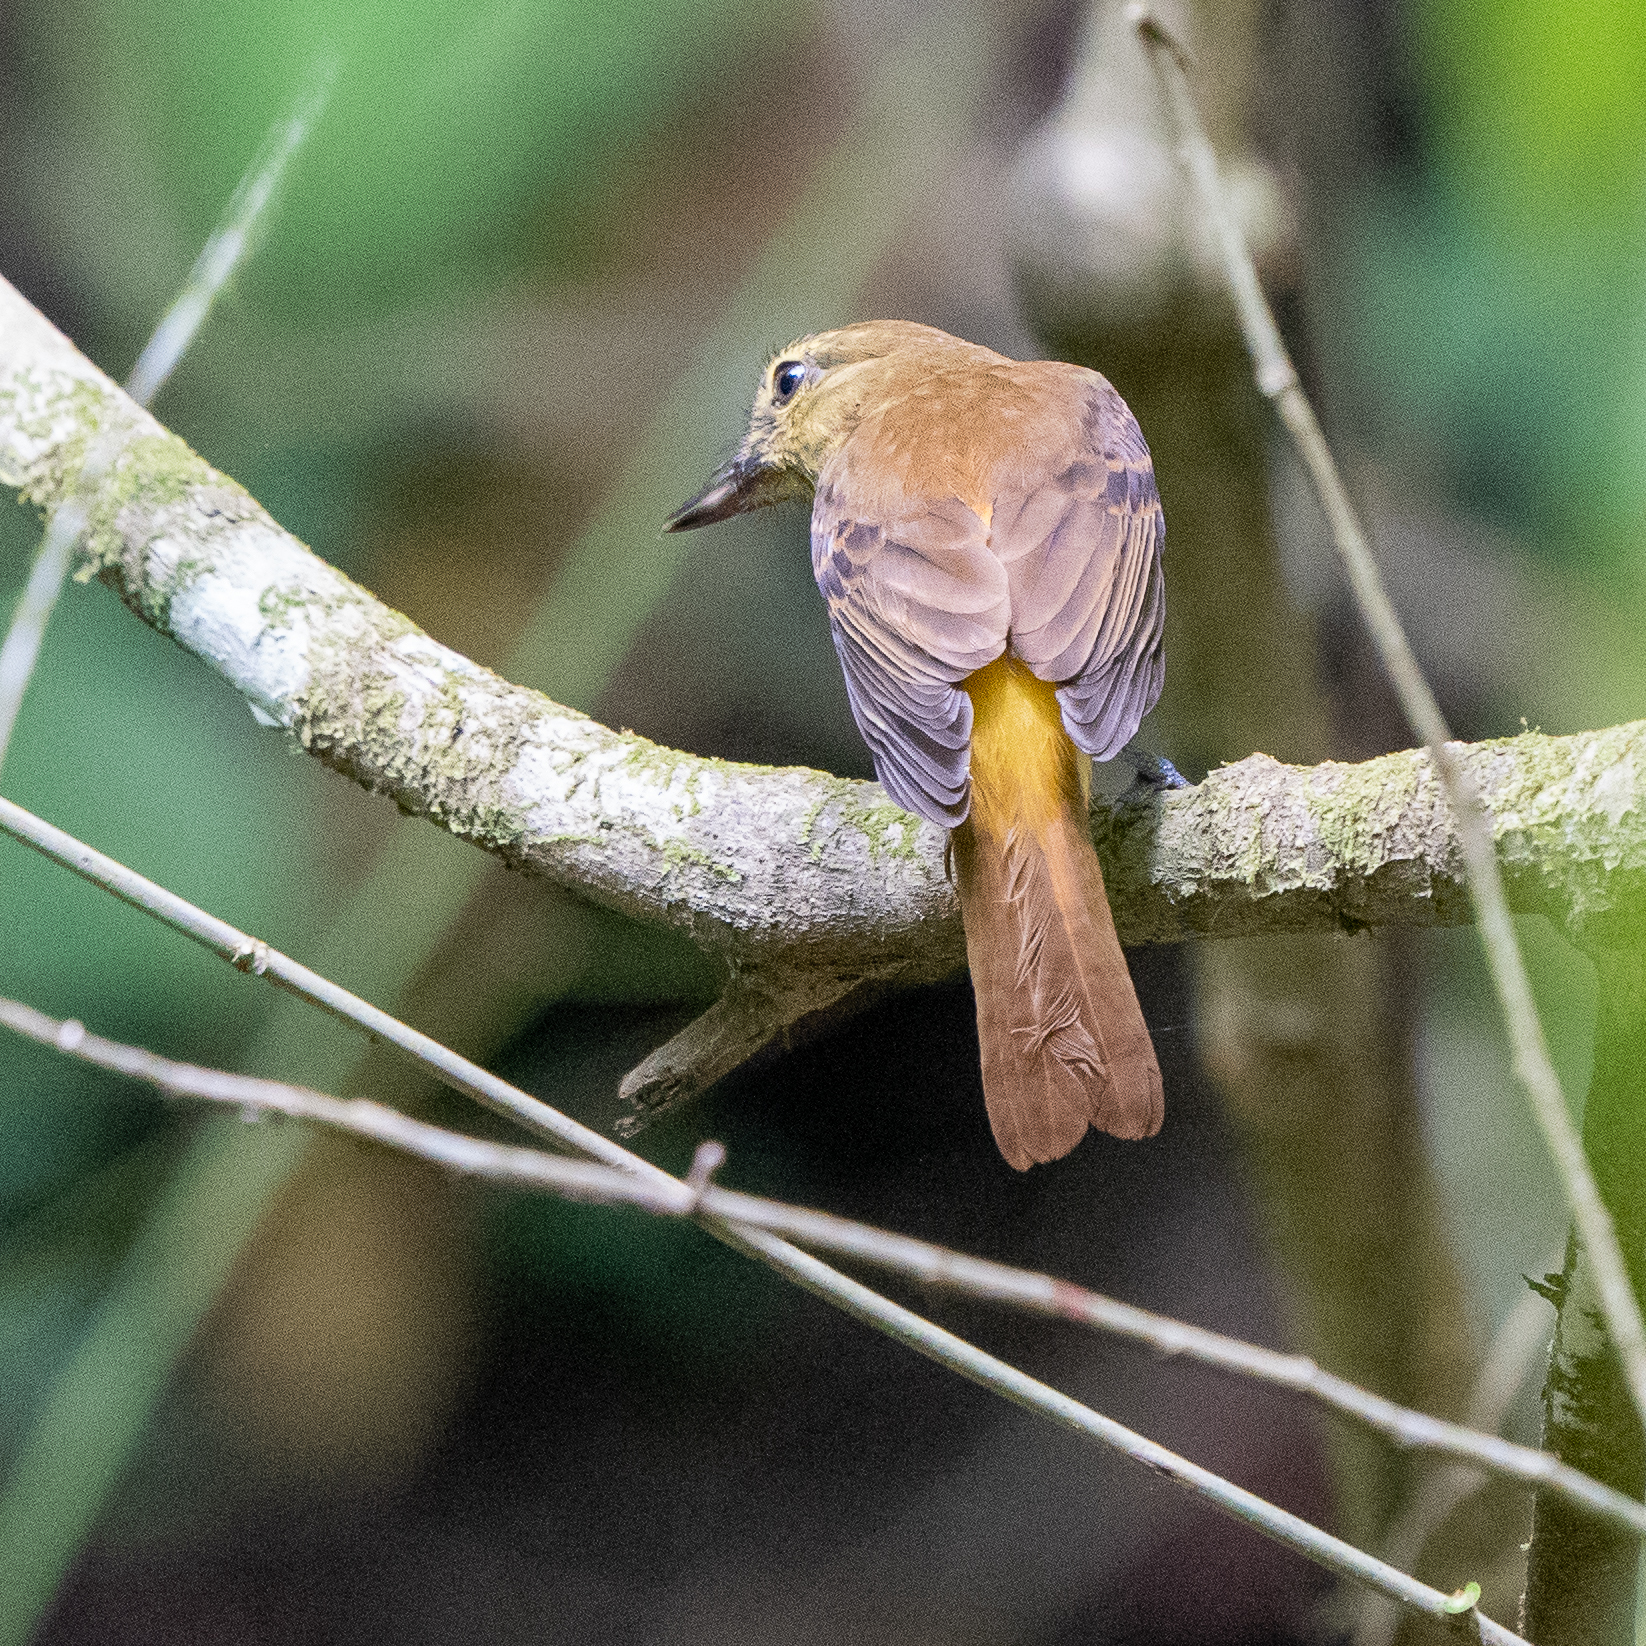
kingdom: Animalia
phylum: Chordata
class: Aves
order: Passeriformes
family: Tyrannidae
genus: Attila
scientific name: Attila spadiceus
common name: Bright-rumped attila
